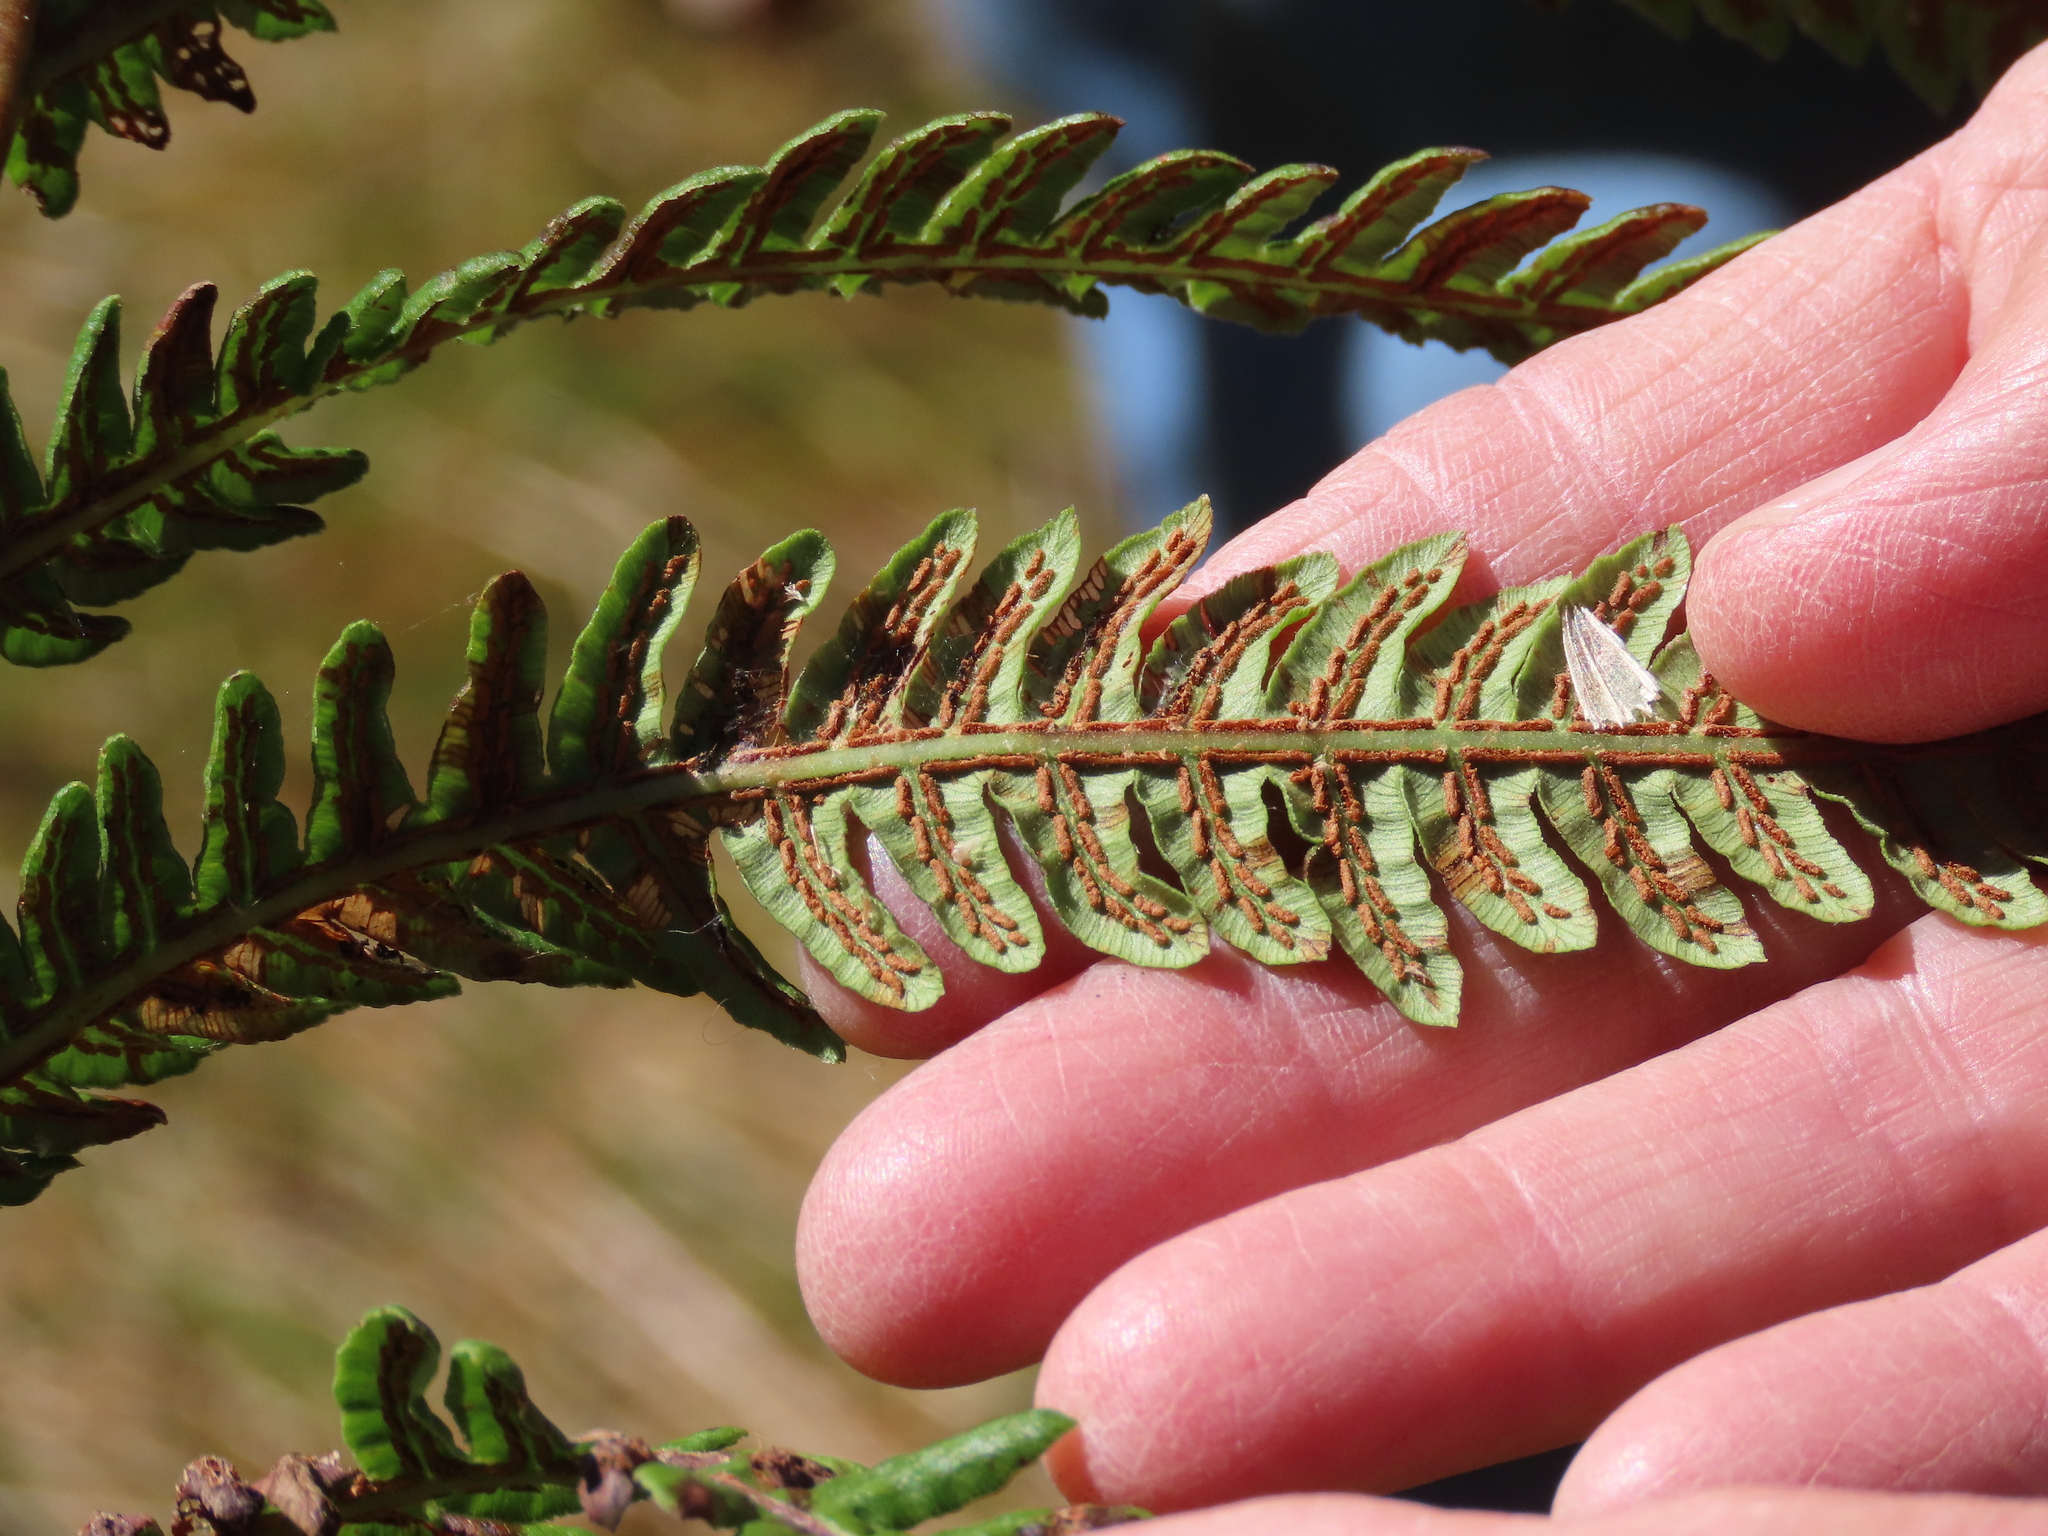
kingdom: Plantae
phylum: Tracheophyta
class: Polypodiopsida
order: Polypodiales
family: Blechnaceae
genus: Anchistea
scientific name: Anchistea virginica
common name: Virginia chain fern
